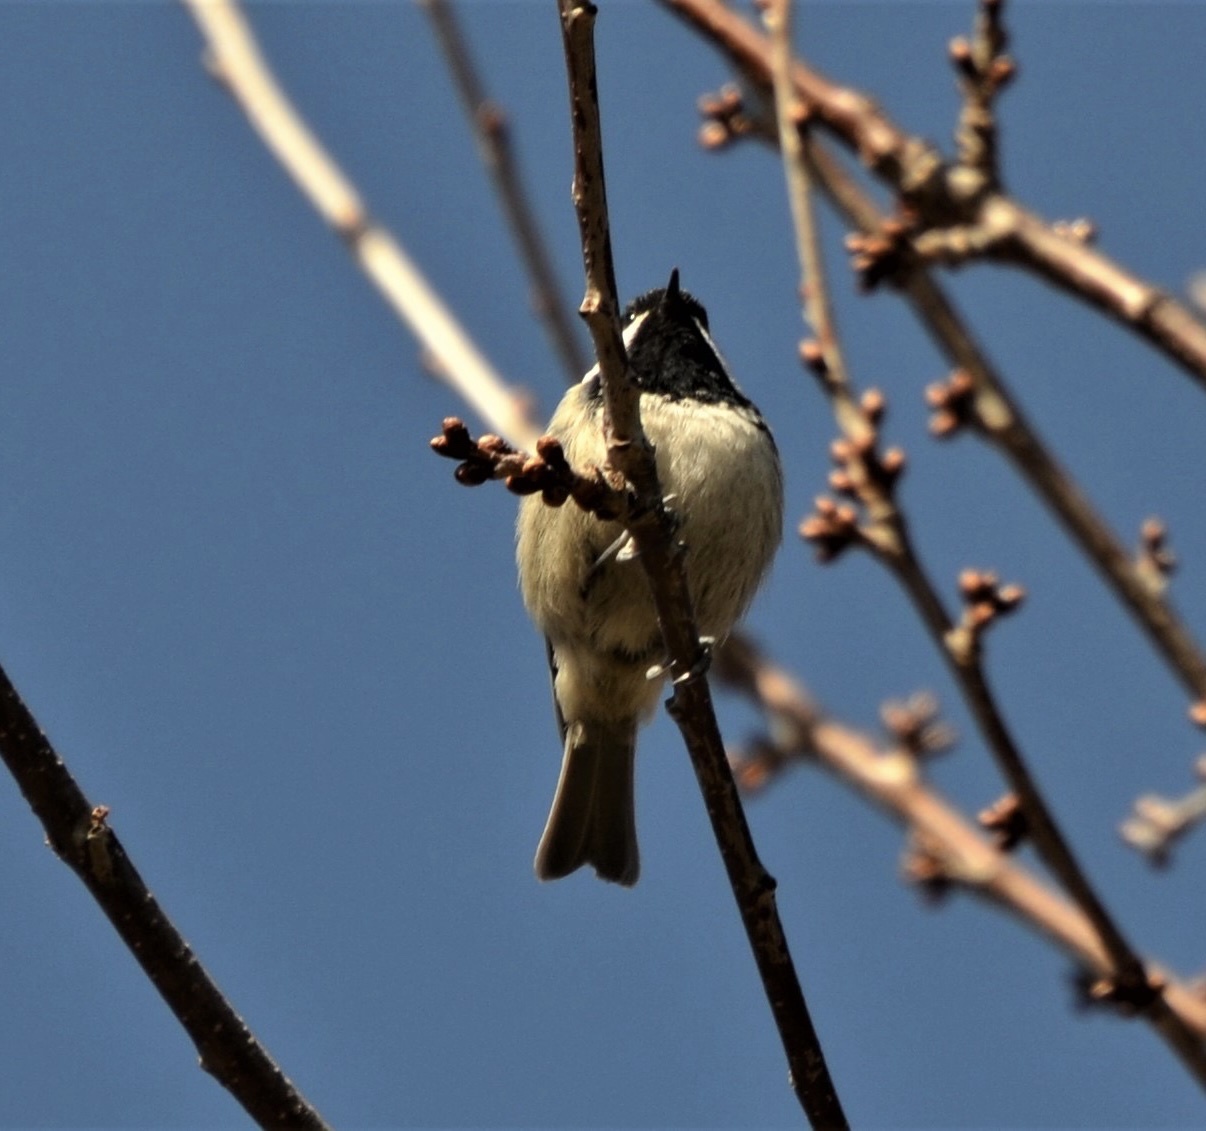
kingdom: Animalia
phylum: Chordata
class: Aves
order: Passeriformes
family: Paridae
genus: Periparus
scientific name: Periparus ater
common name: Coal tit
